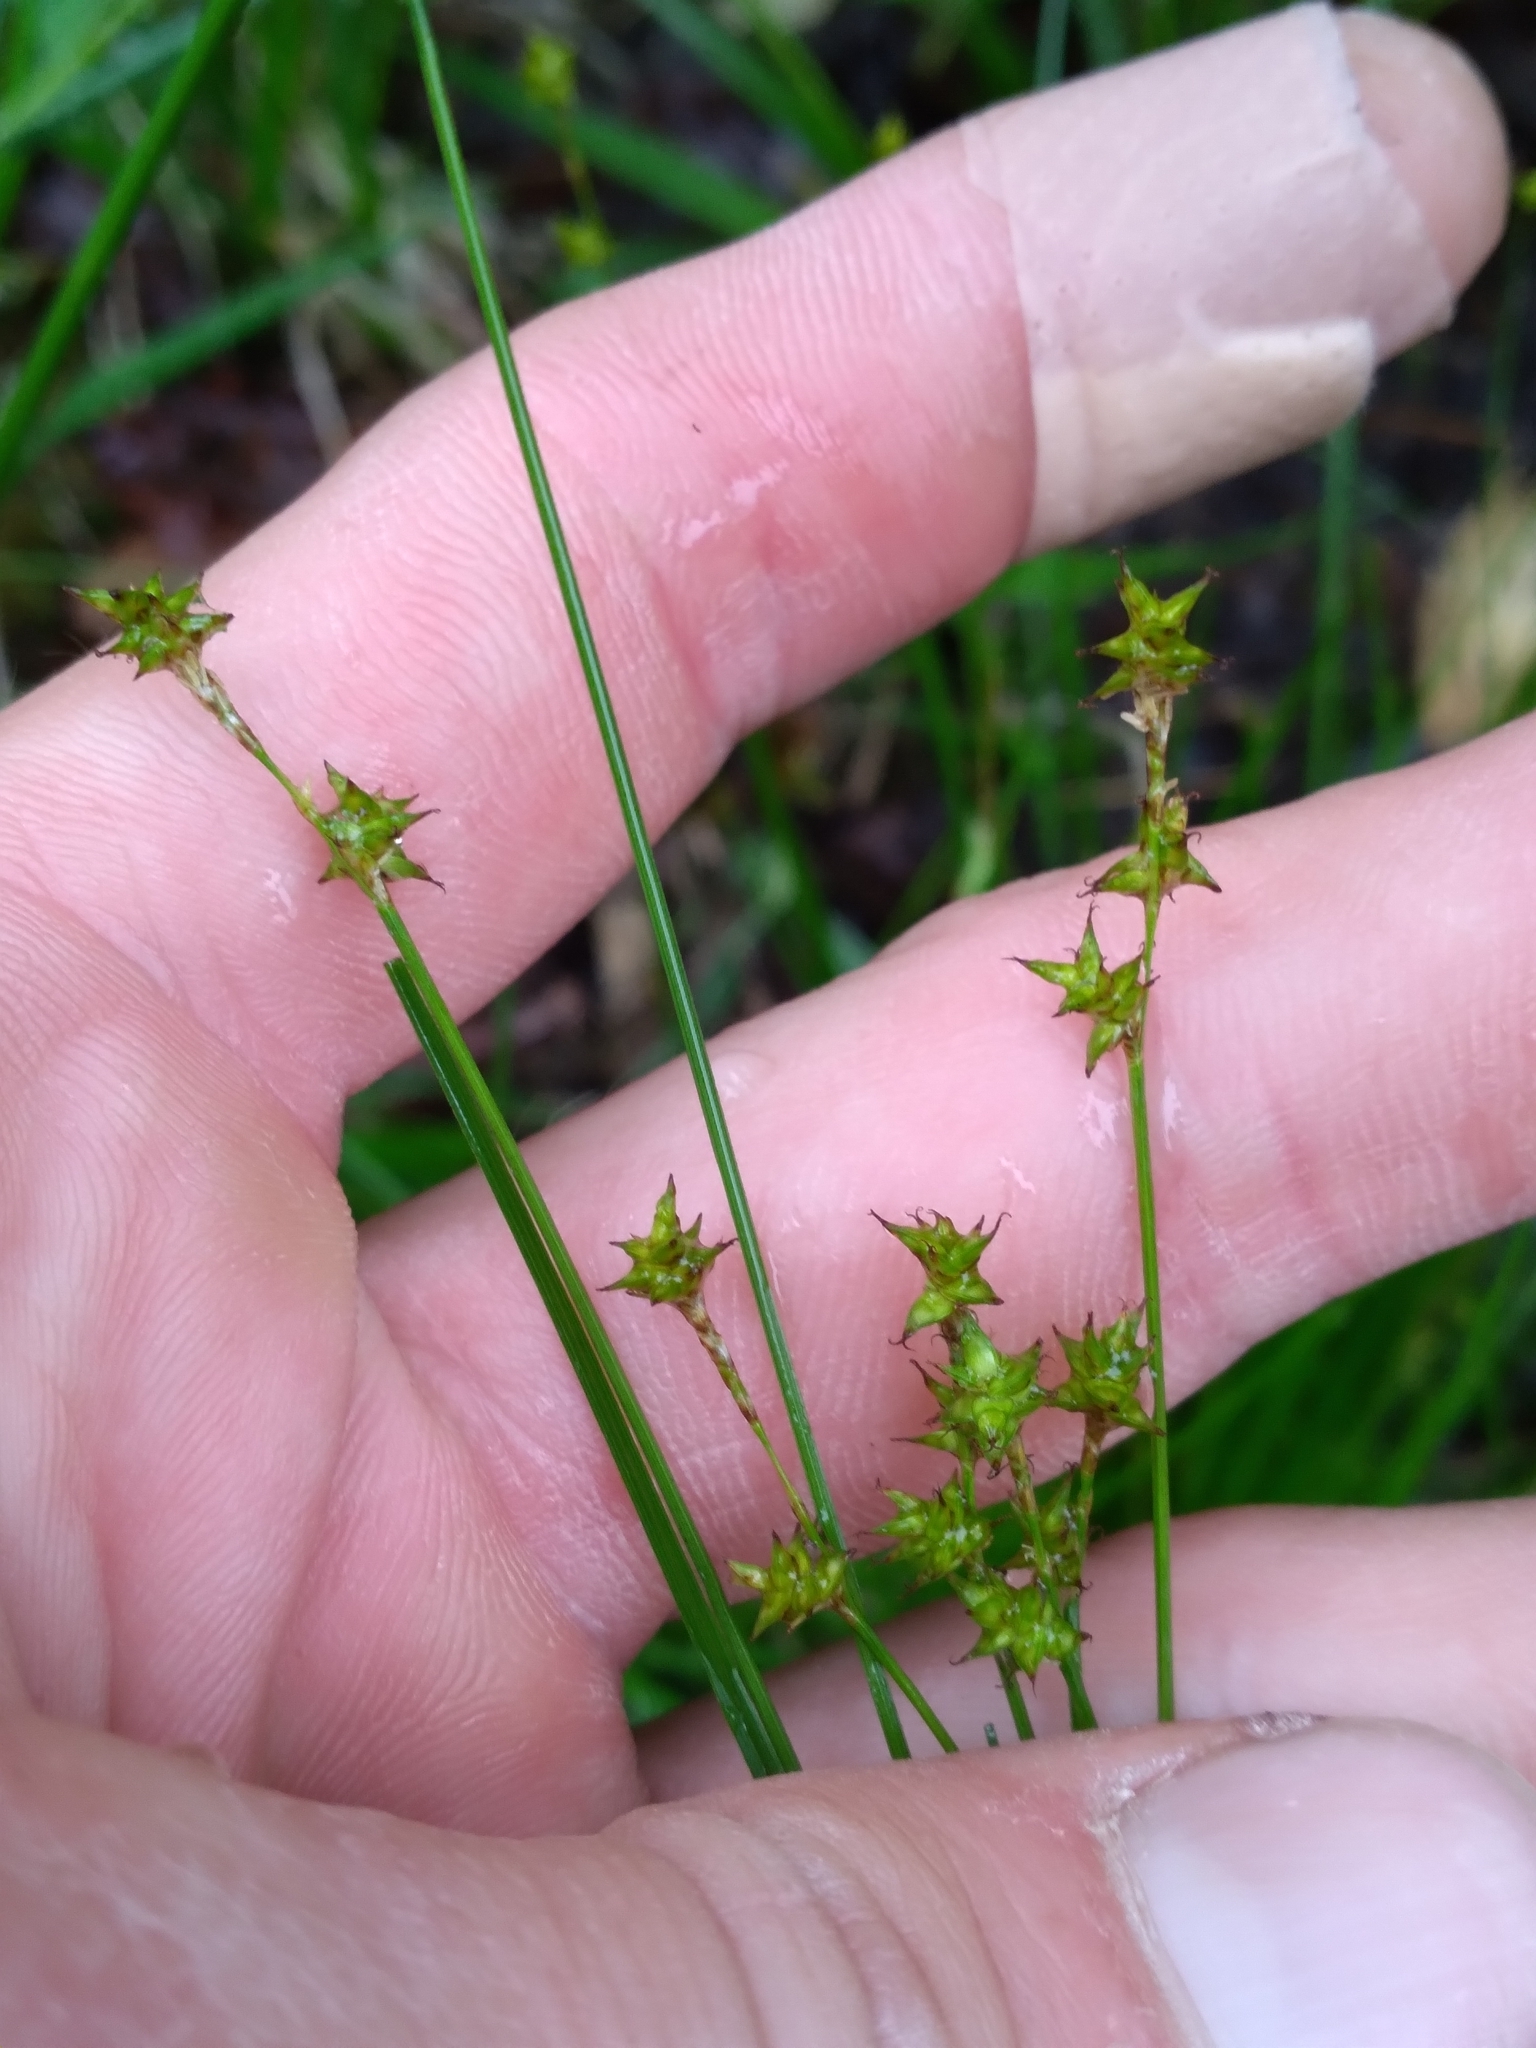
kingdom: Plantae
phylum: Tracheophyta
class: Liliopsida
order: Poales
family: Cyperaceae
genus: Carex
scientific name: Carex interior
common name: Inland sedge
